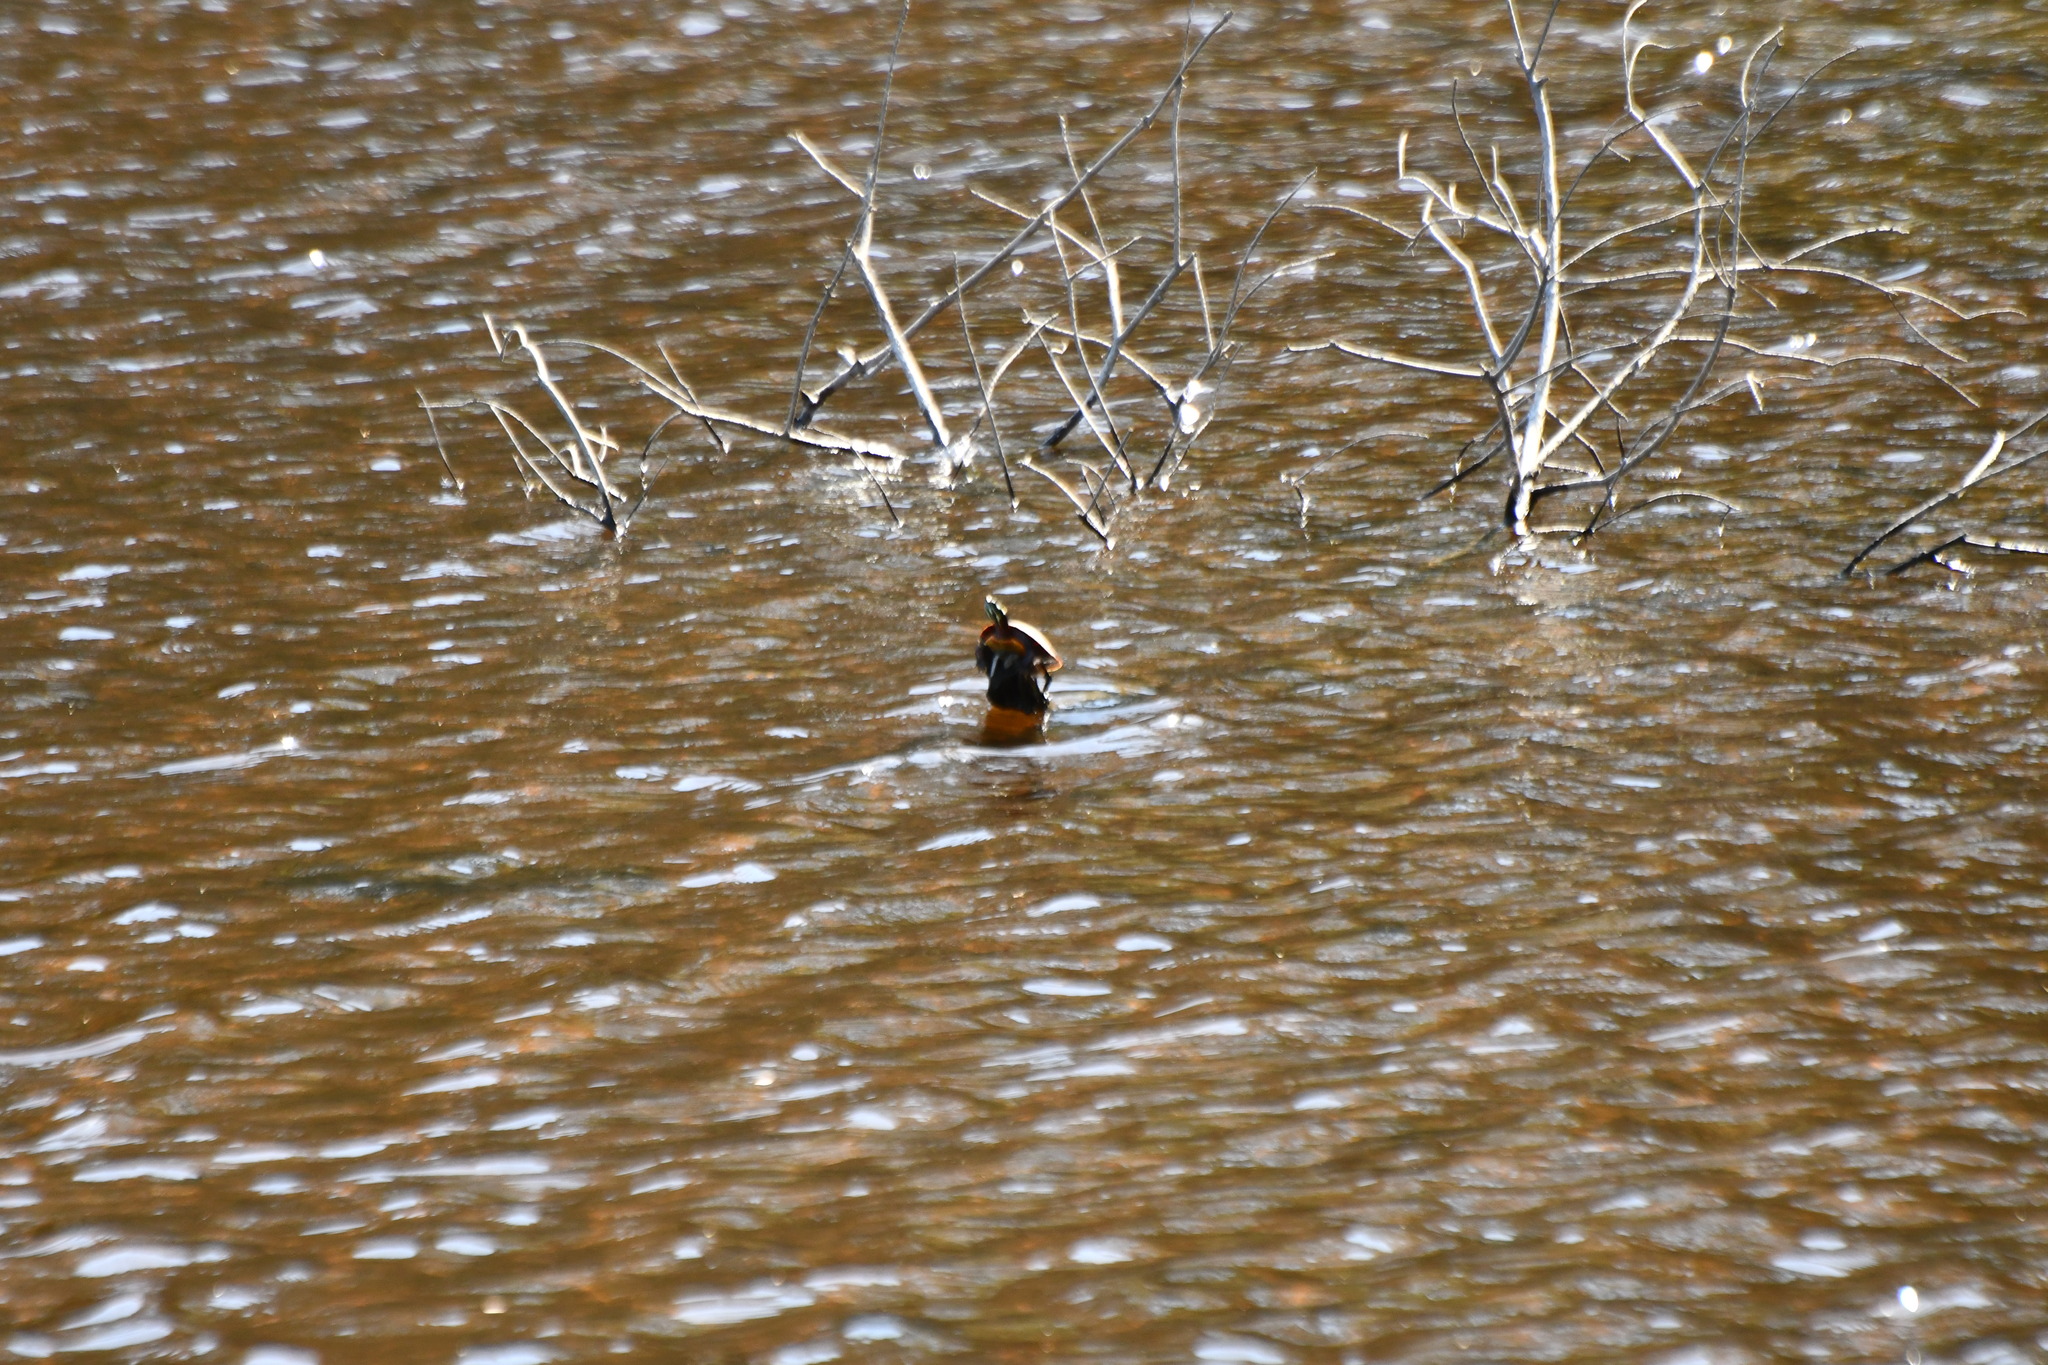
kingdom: Animalia
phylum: Chordata
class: Testudines
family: Emydidae
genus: Chrysemys
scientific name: Chrysemys picta
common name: Painted turtle
